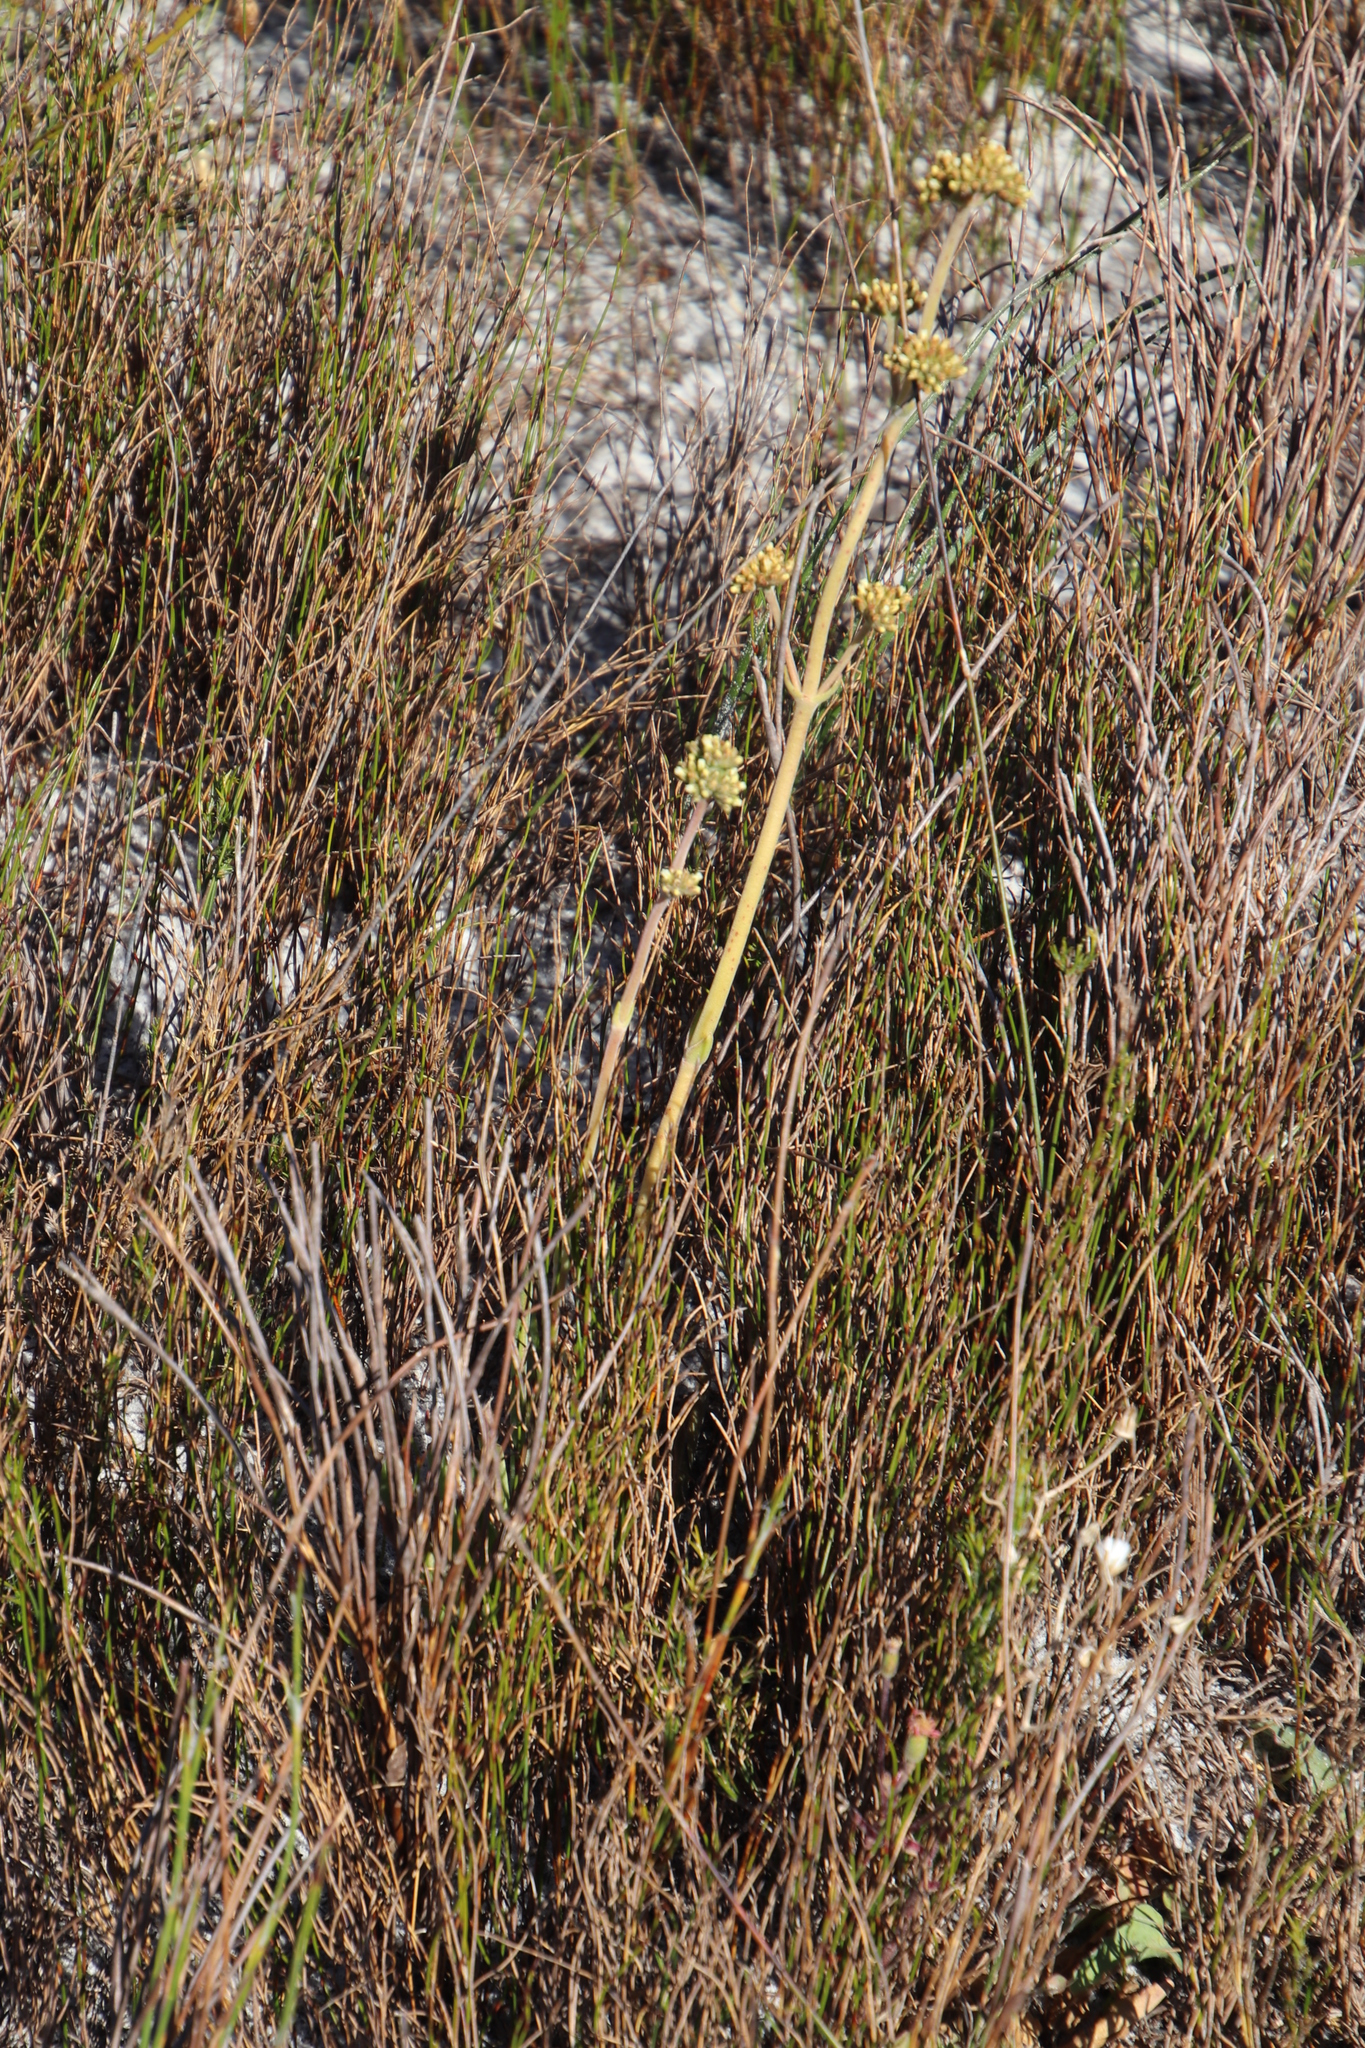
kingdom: Plantae
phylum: Tracheophyta
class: Magnoliopsida
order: Saxifragales
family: Crassulaceae
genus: Crassula
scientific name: Crassula nudicaulis
